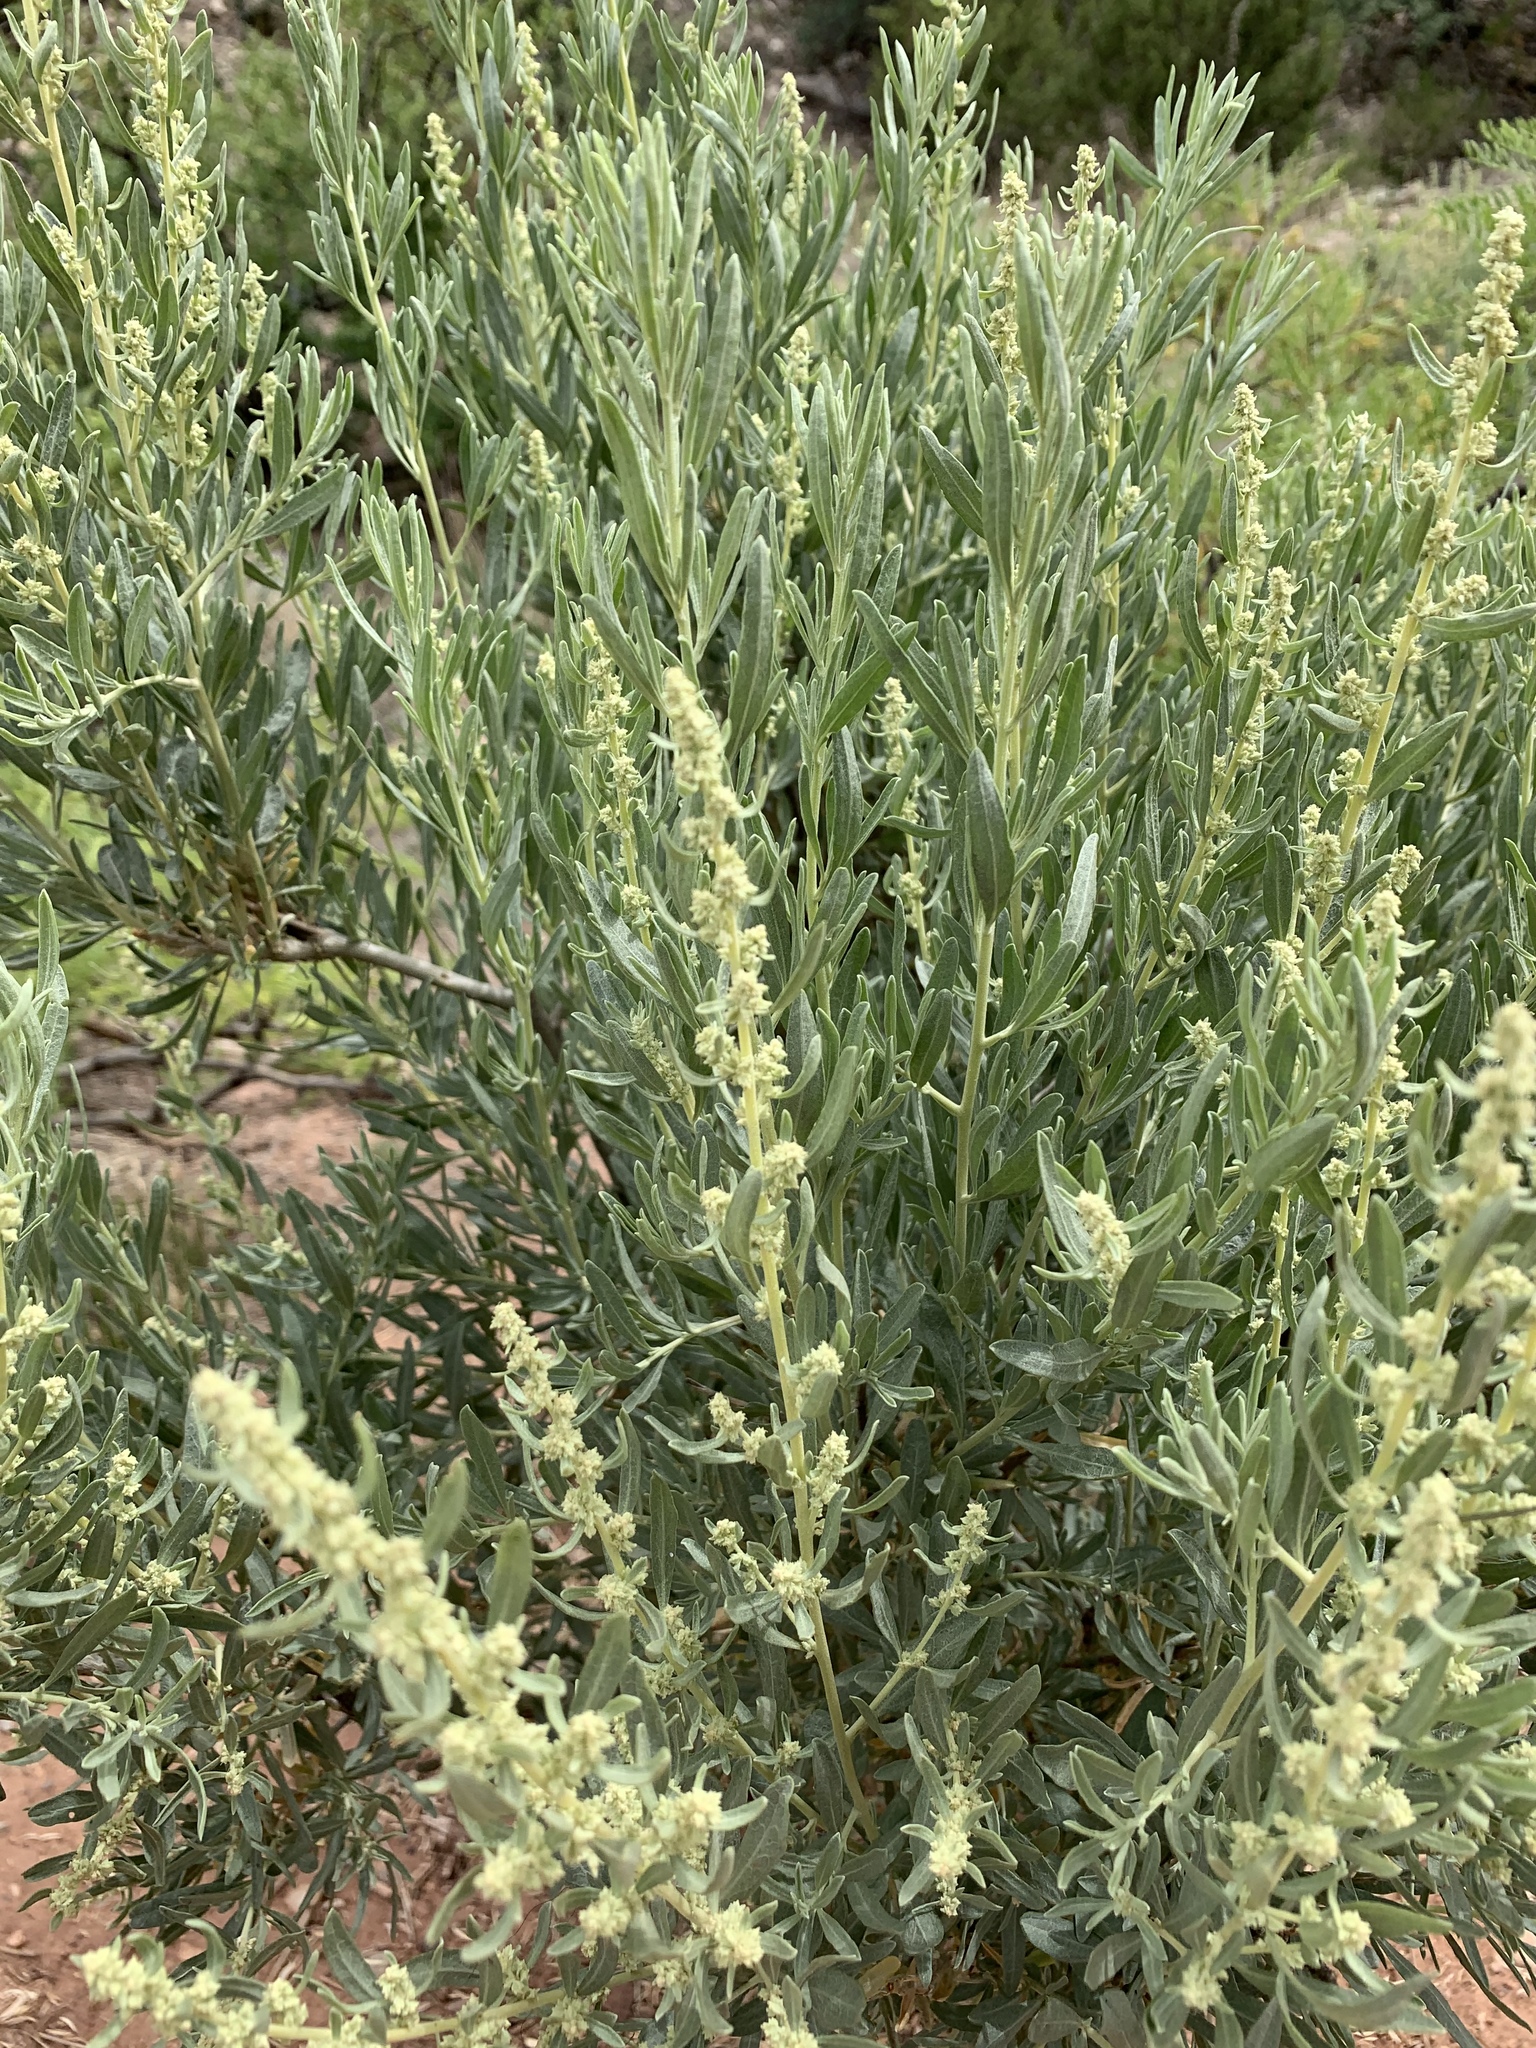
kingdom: Plantae
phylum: Tracheophyta
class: Magnoliopsida
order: Caryophyllales
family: Amaranthaceae
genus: Atriplex
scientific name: Atriplex canescens
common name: Four-wing saltbush
